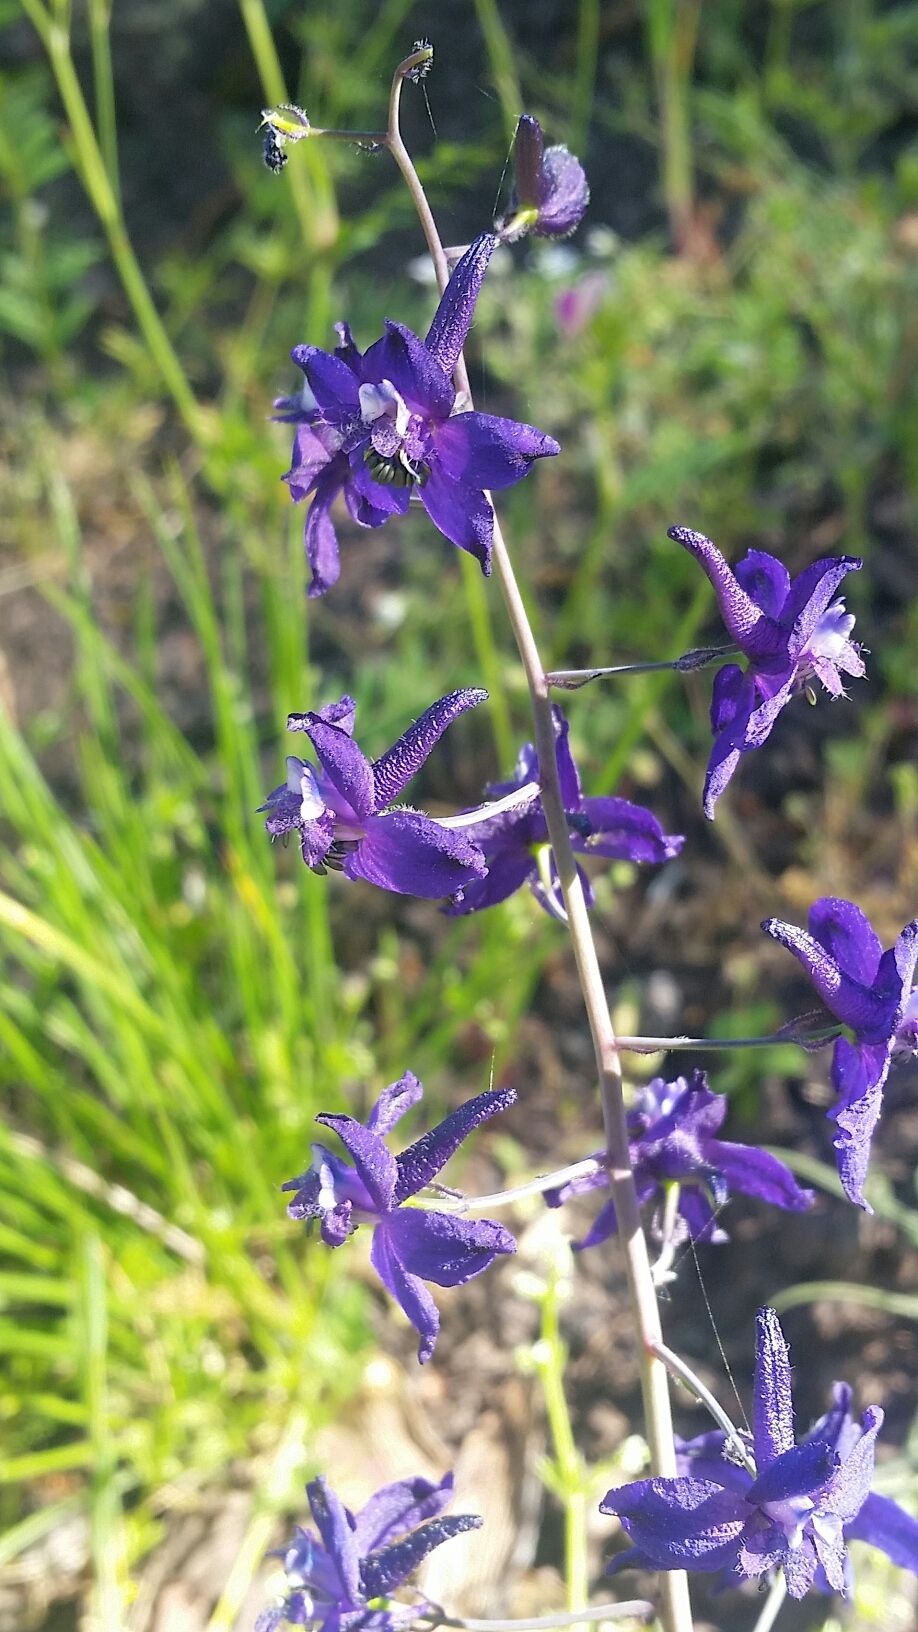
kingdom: Plantae
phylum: Tracheophyta
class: Magnoliopsida
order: Ranunculales
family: Ranunculaceae
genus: Delphinium
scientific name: Delphinium patens
